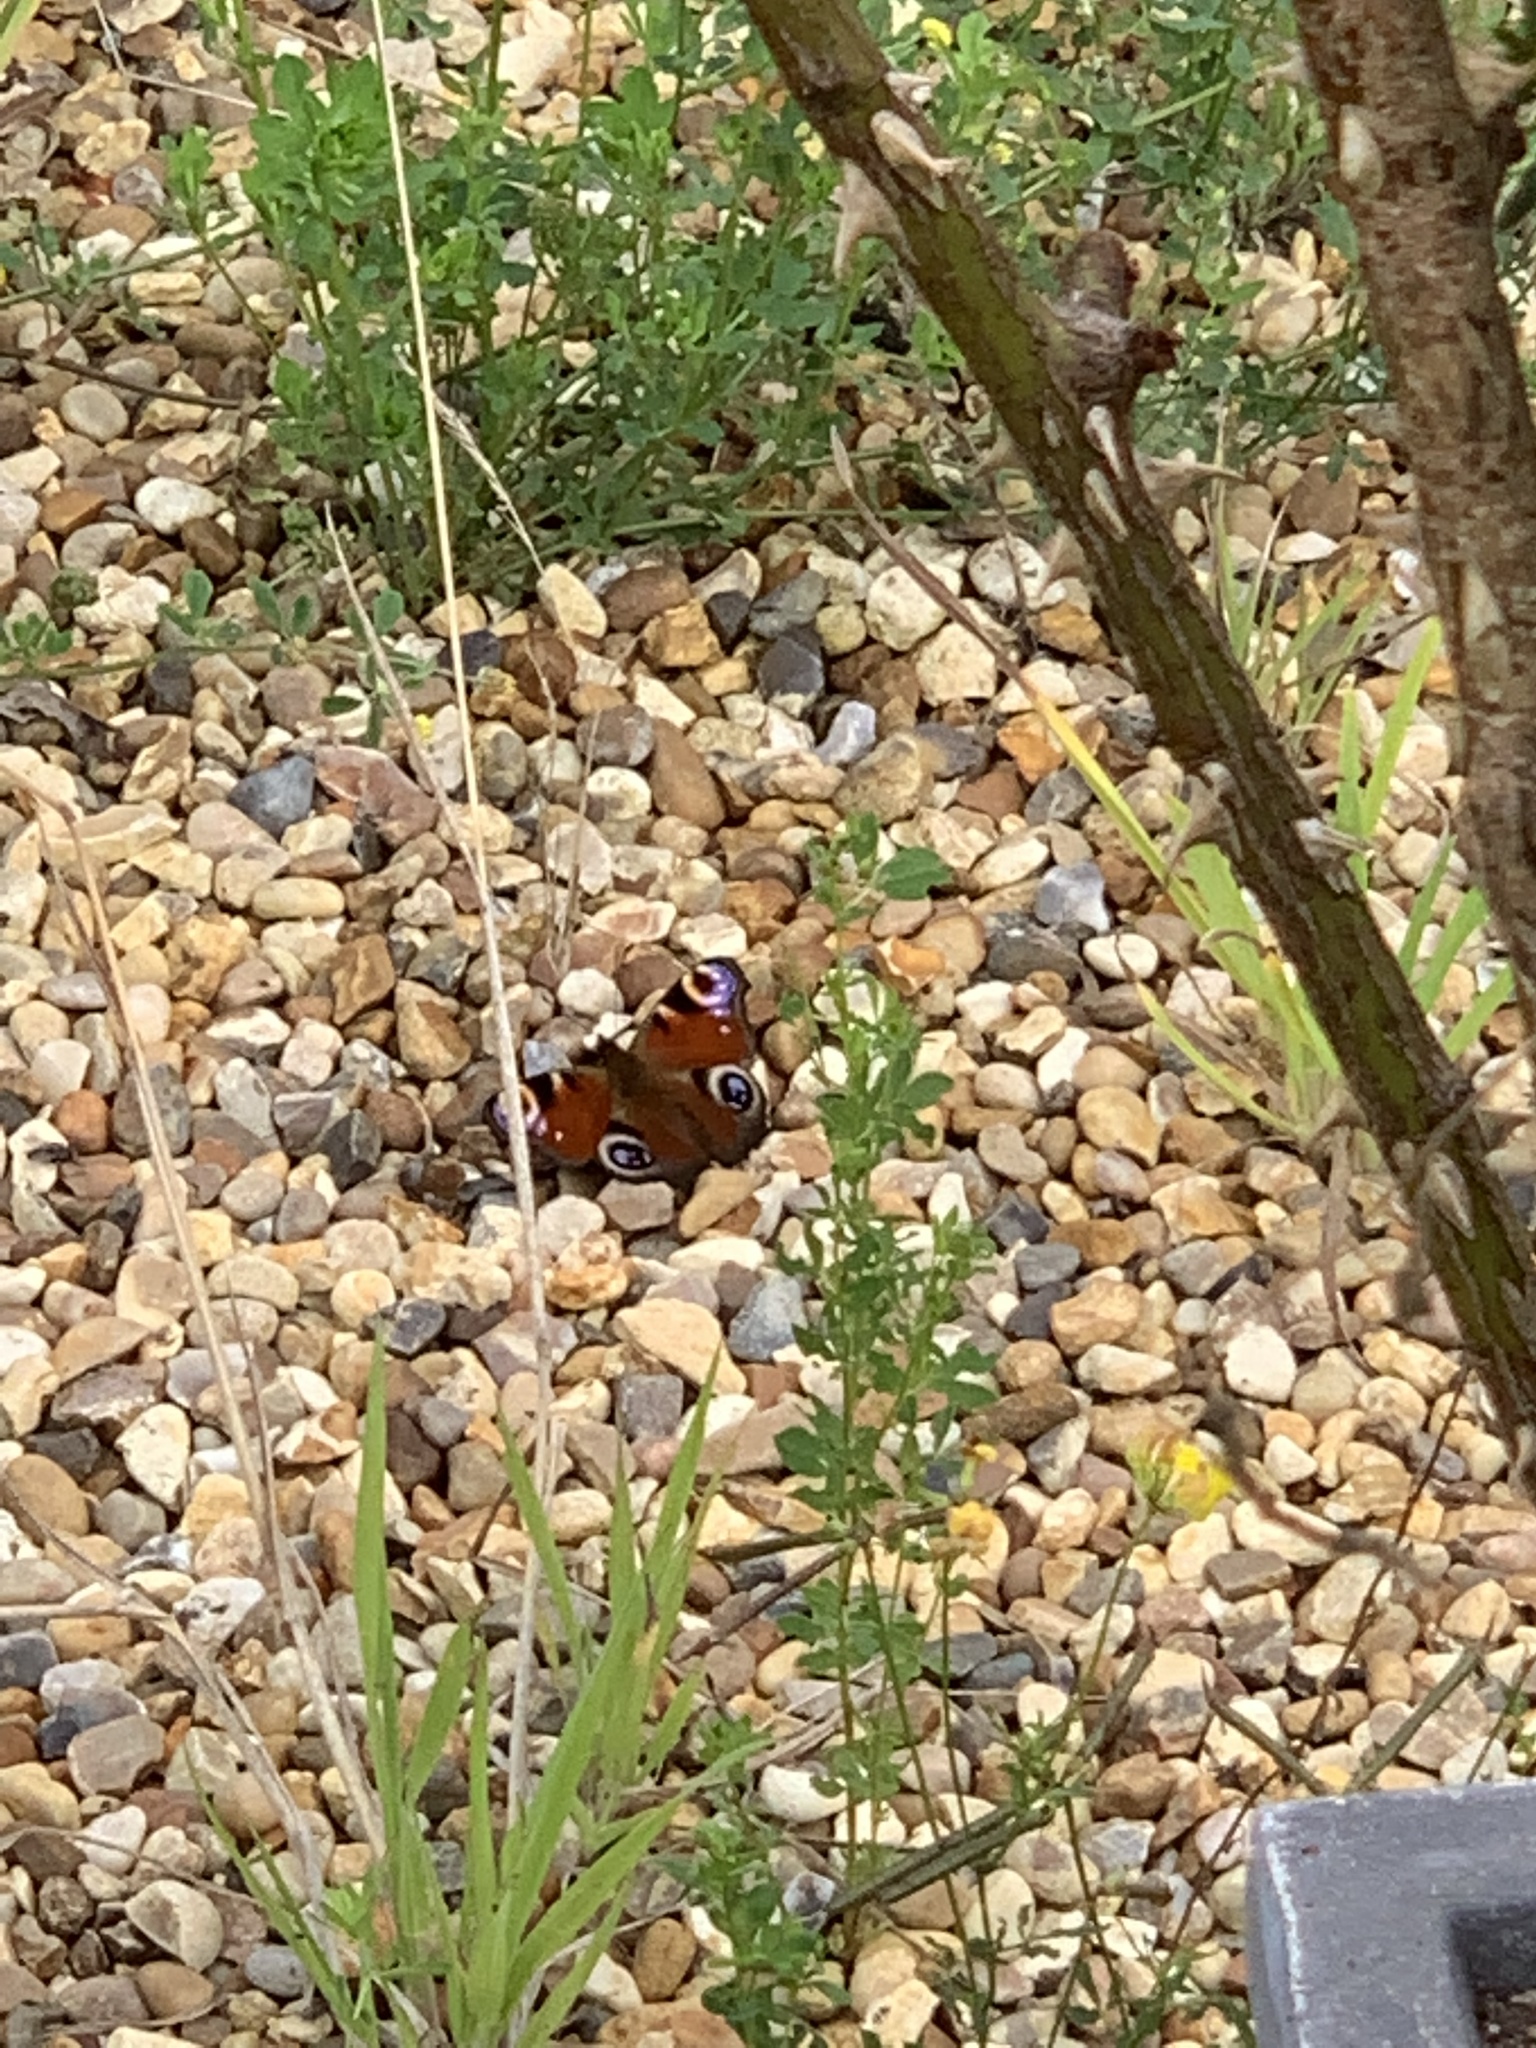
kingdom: Animalia
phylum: Arthropoda
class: Insecta
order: Lepidoptera
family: Nymphalidae
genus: Aglais
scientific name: Aglais io
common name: Peacock
